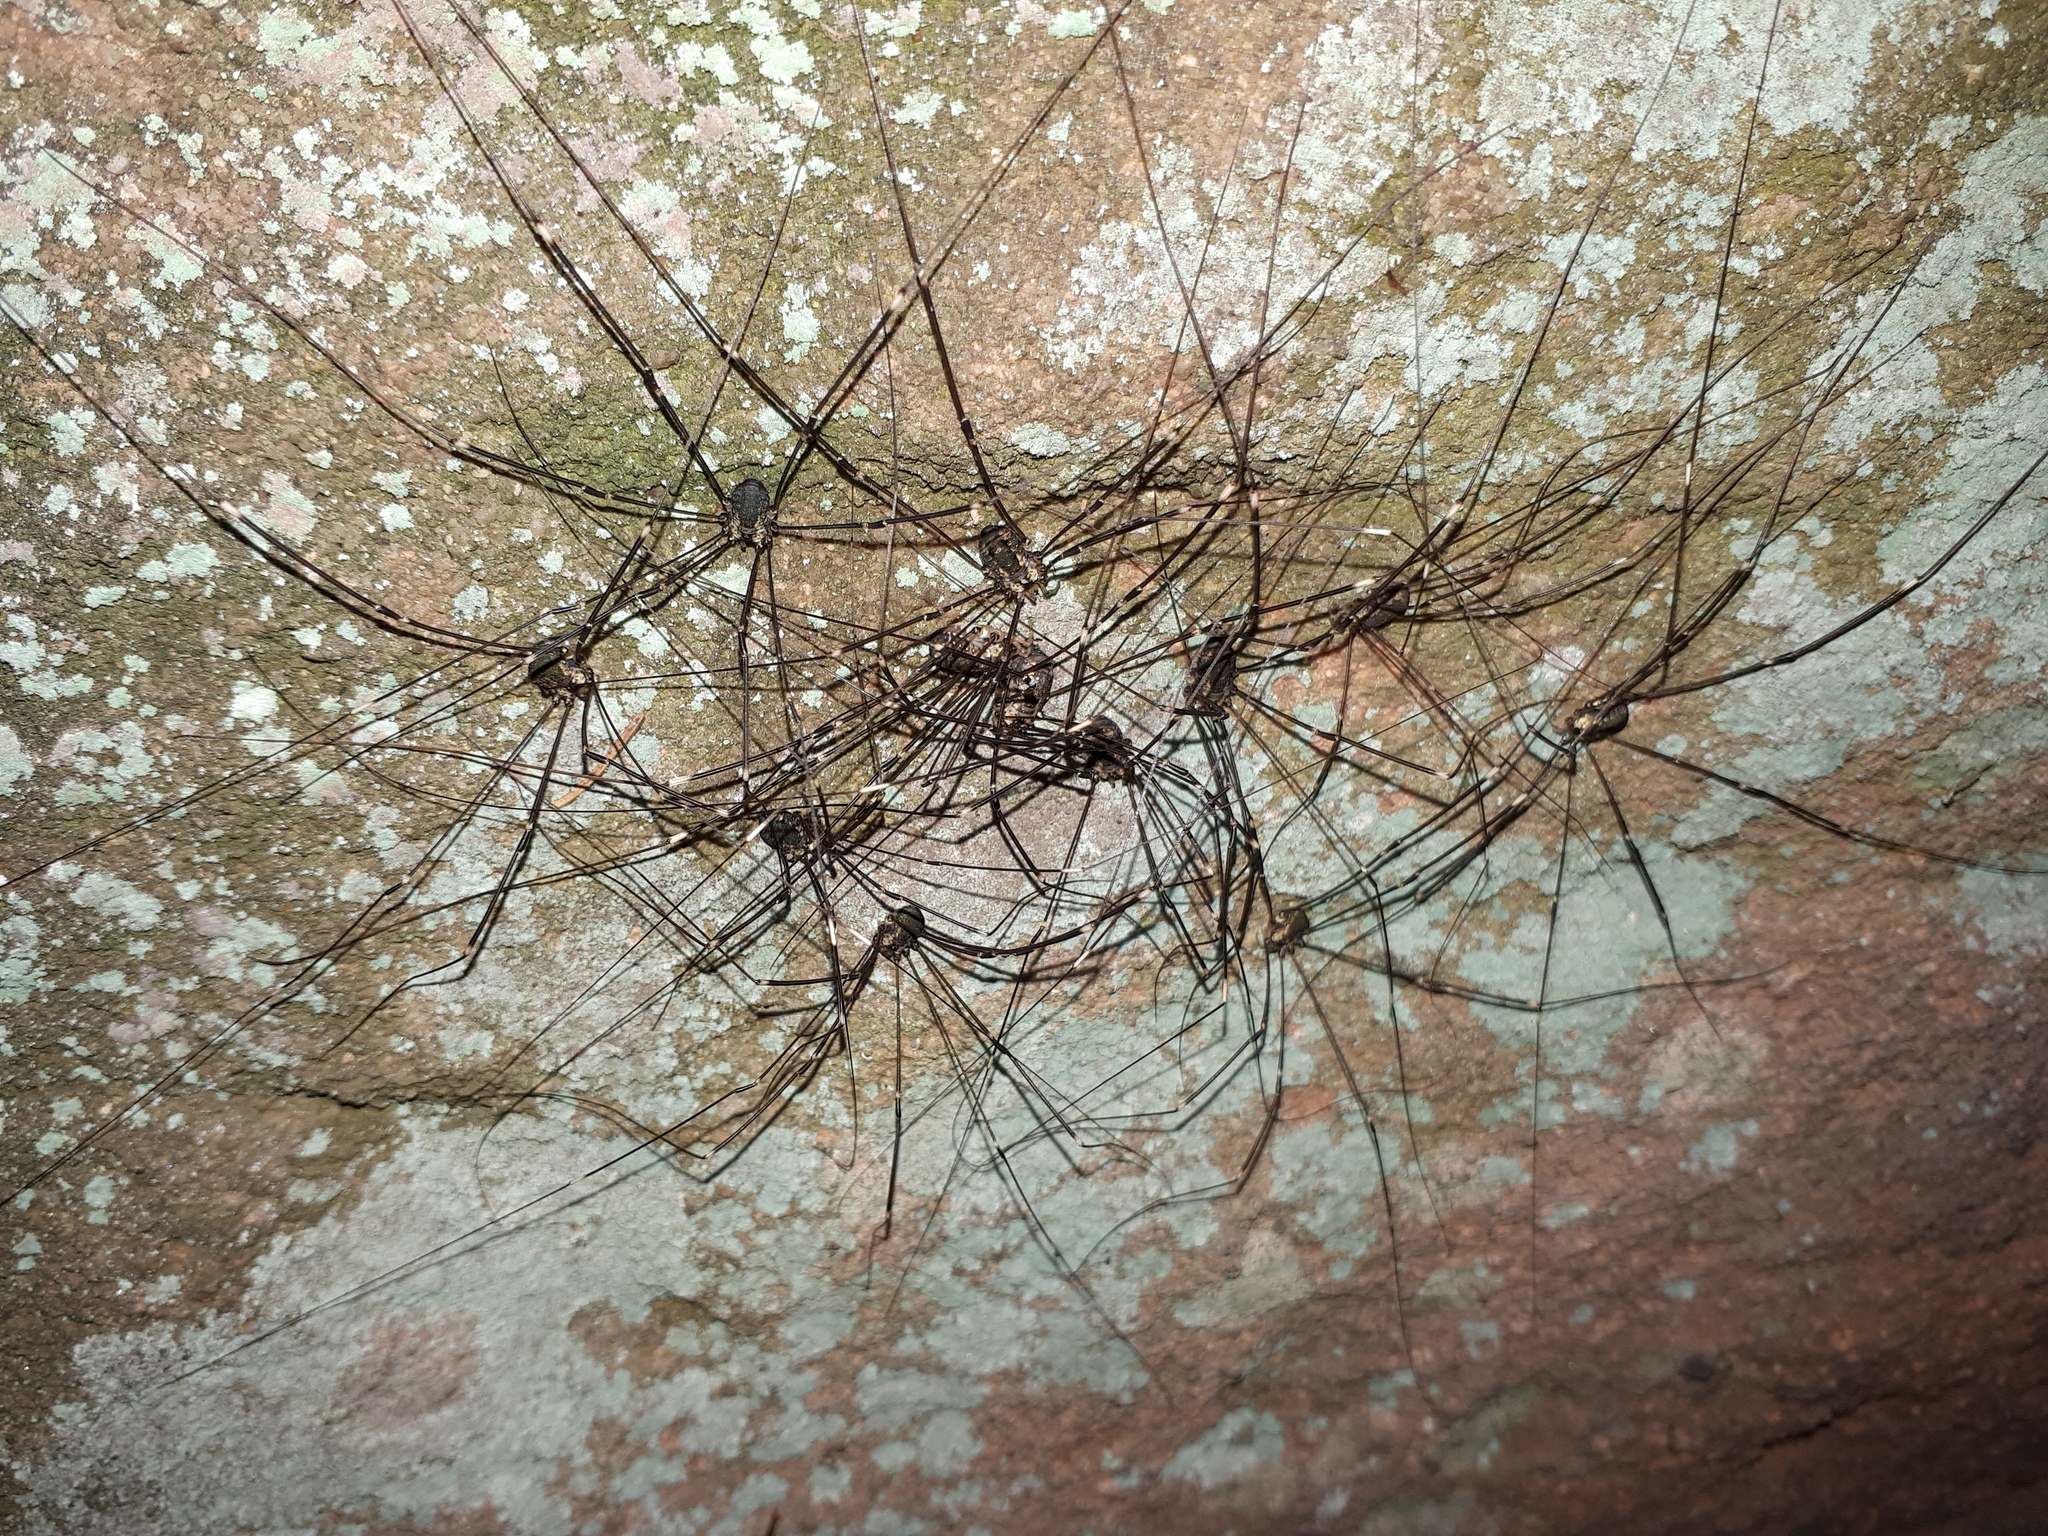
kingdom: Animalia
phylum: Arthropoda
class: Arachnida
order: Opiliones
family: Sclerosomatidae
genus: Leiobunum
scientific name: Leiobunum
